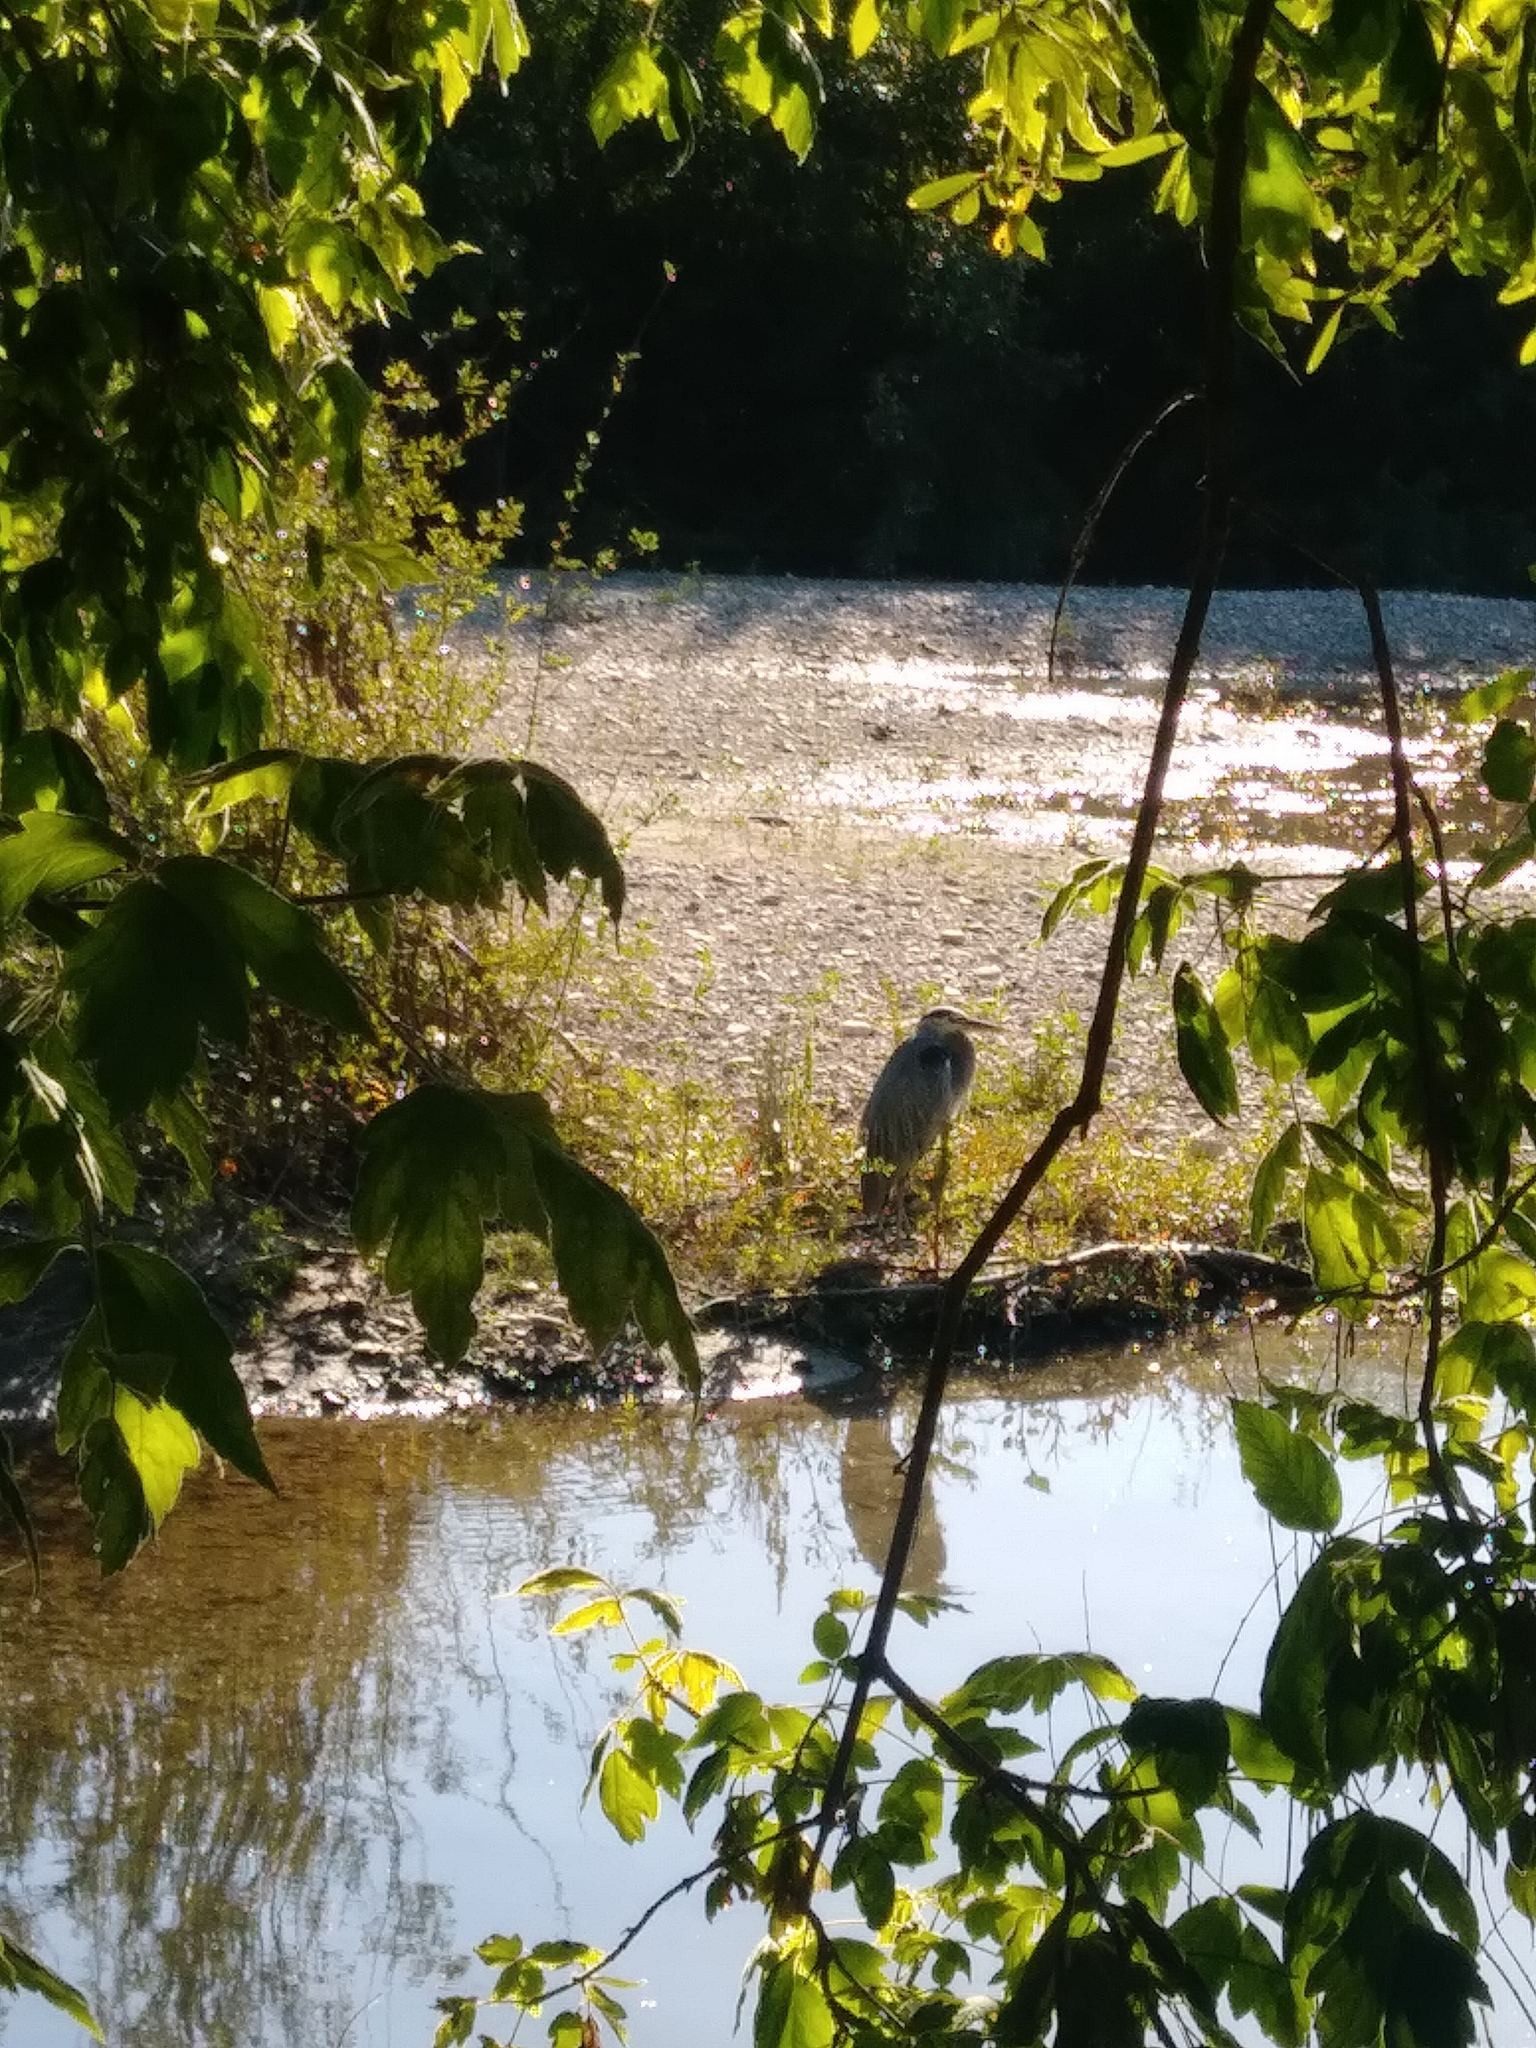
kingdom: Animalia
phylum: Chordata
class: Aves
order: Pelecaniformes
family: Ardeidae
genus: Ardea
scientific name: Ardea herodias
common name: Great blue heron
